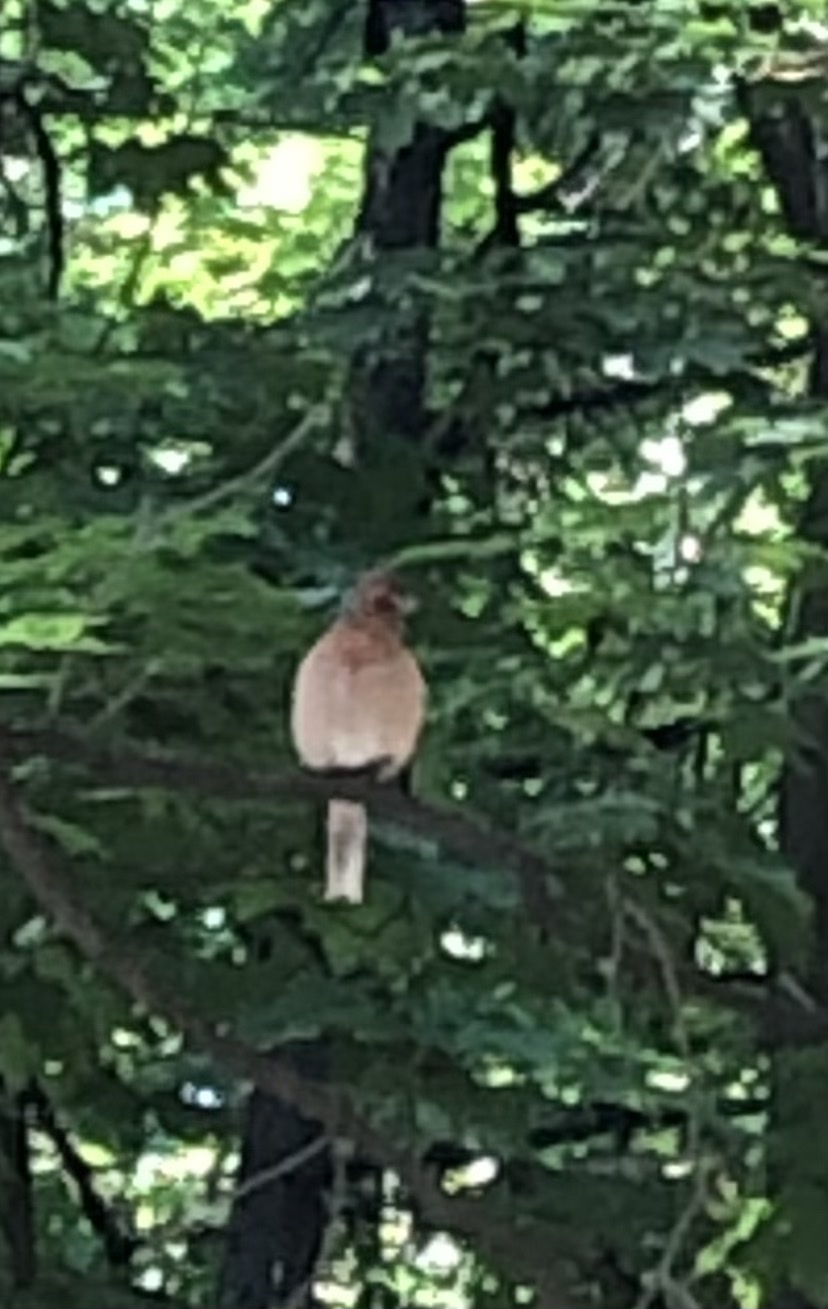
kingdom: Animalia
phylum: Chordata
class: Aves
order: Passeriformes
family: Fringillidae
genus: Fringilla
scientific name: Fringilla coelebs
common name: Common chaffinch
